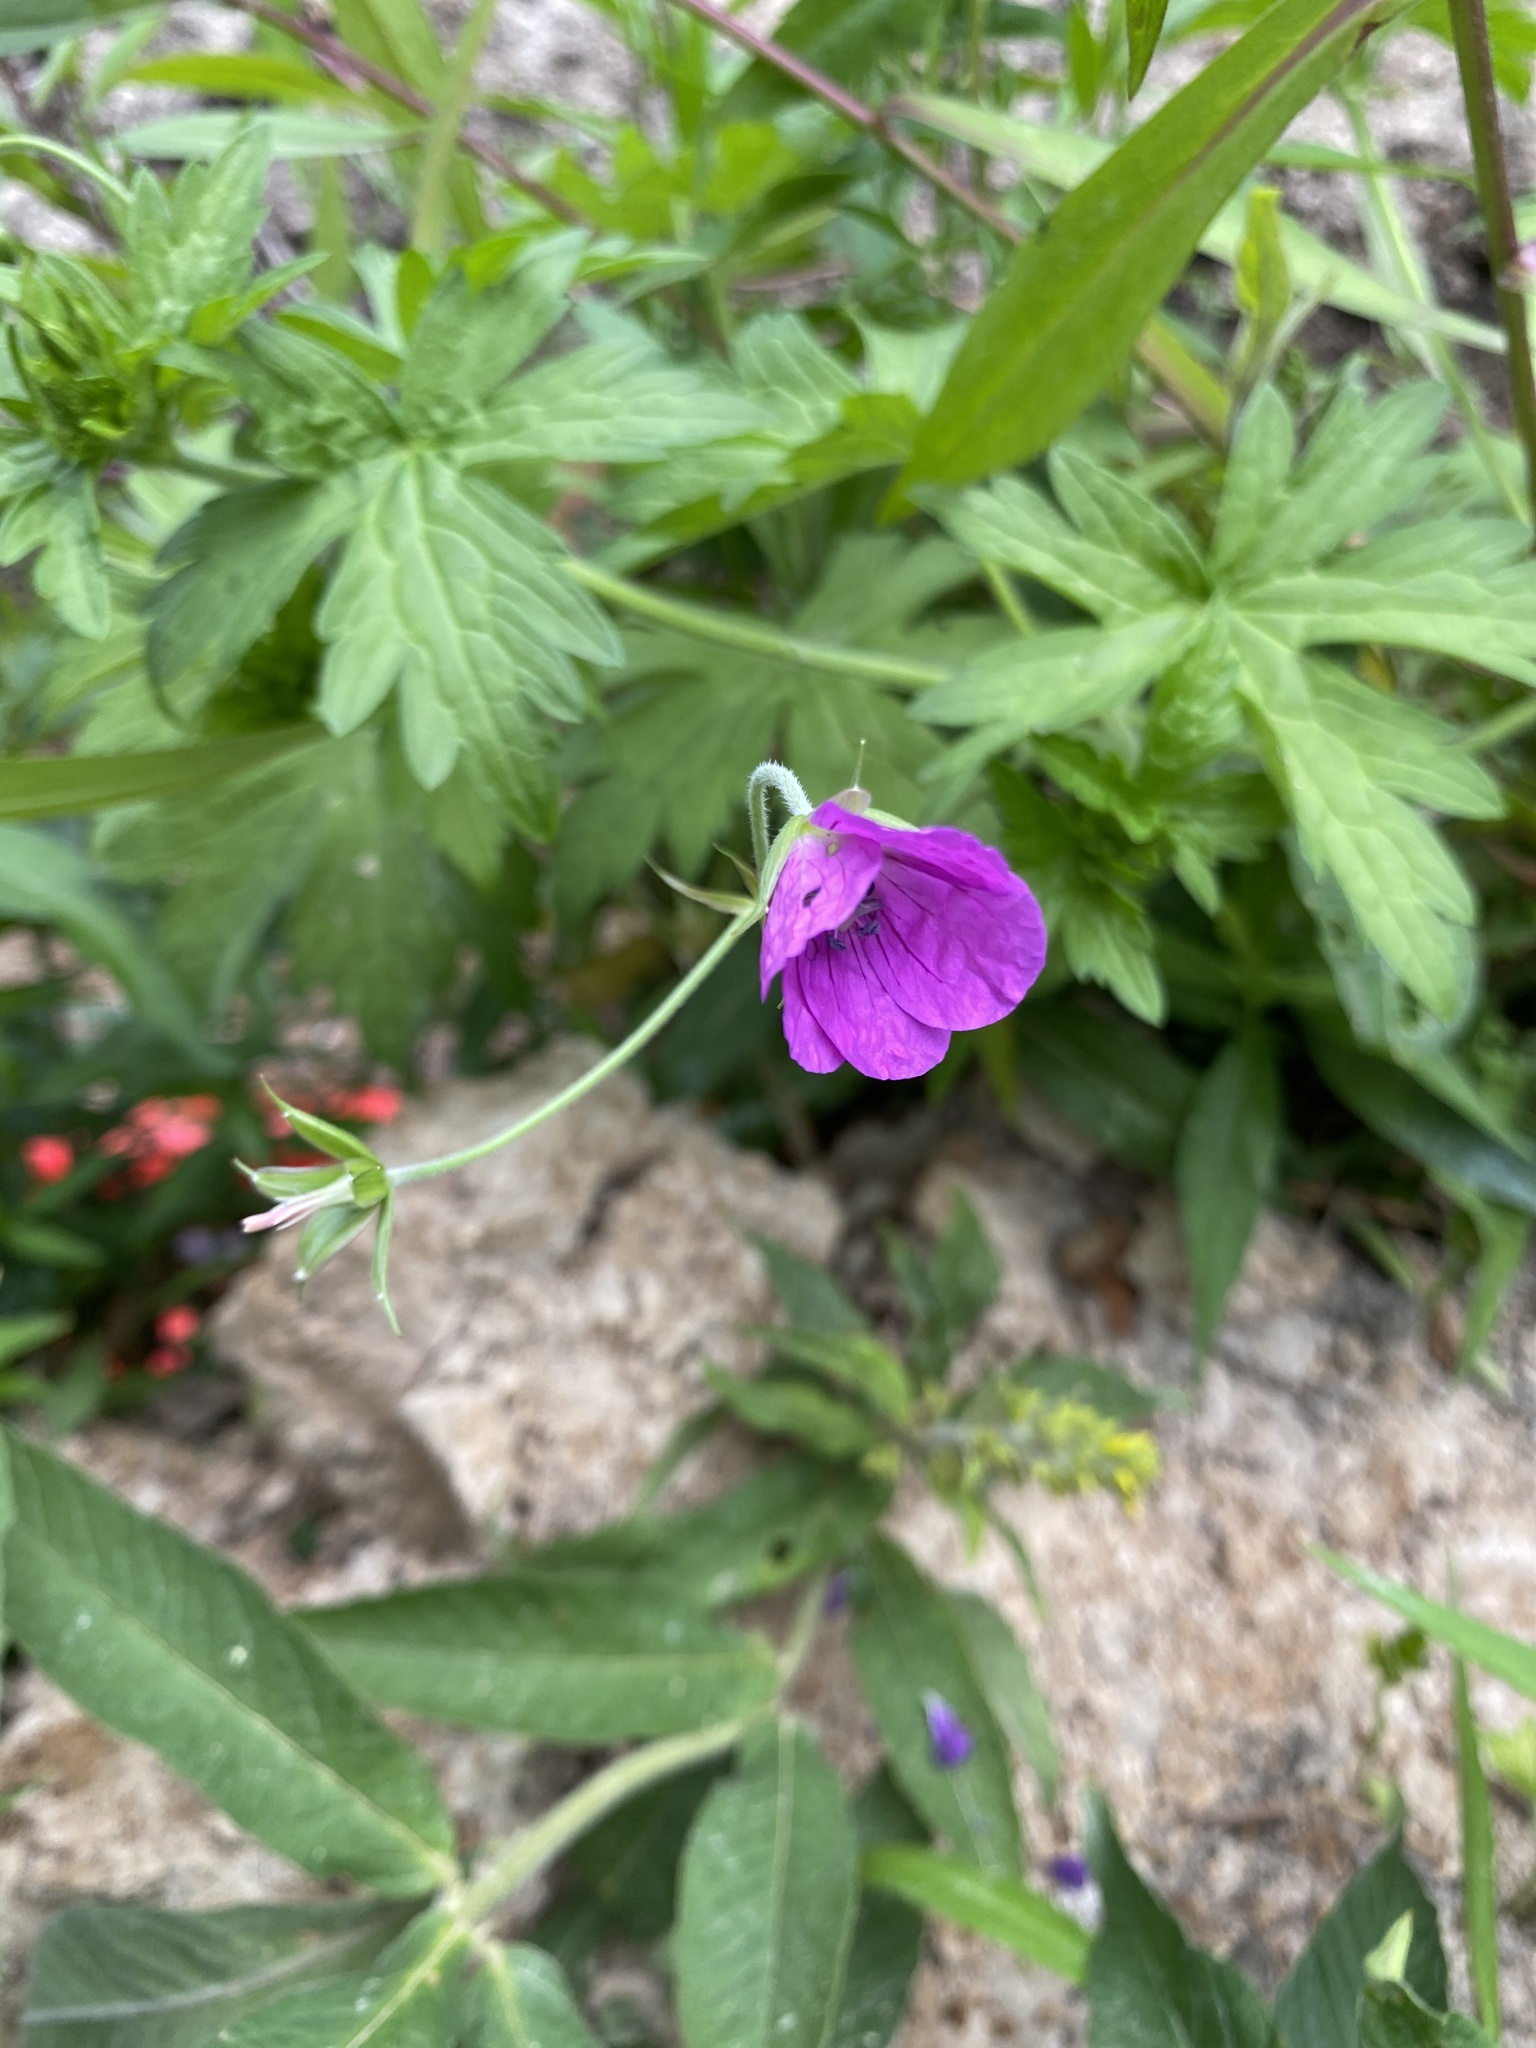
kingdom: Plantae
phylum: Tracheophyta
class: Magnoliopsida
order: Geraniales
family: Geraniaceae
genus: Geranium
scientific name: Geranium palustre
